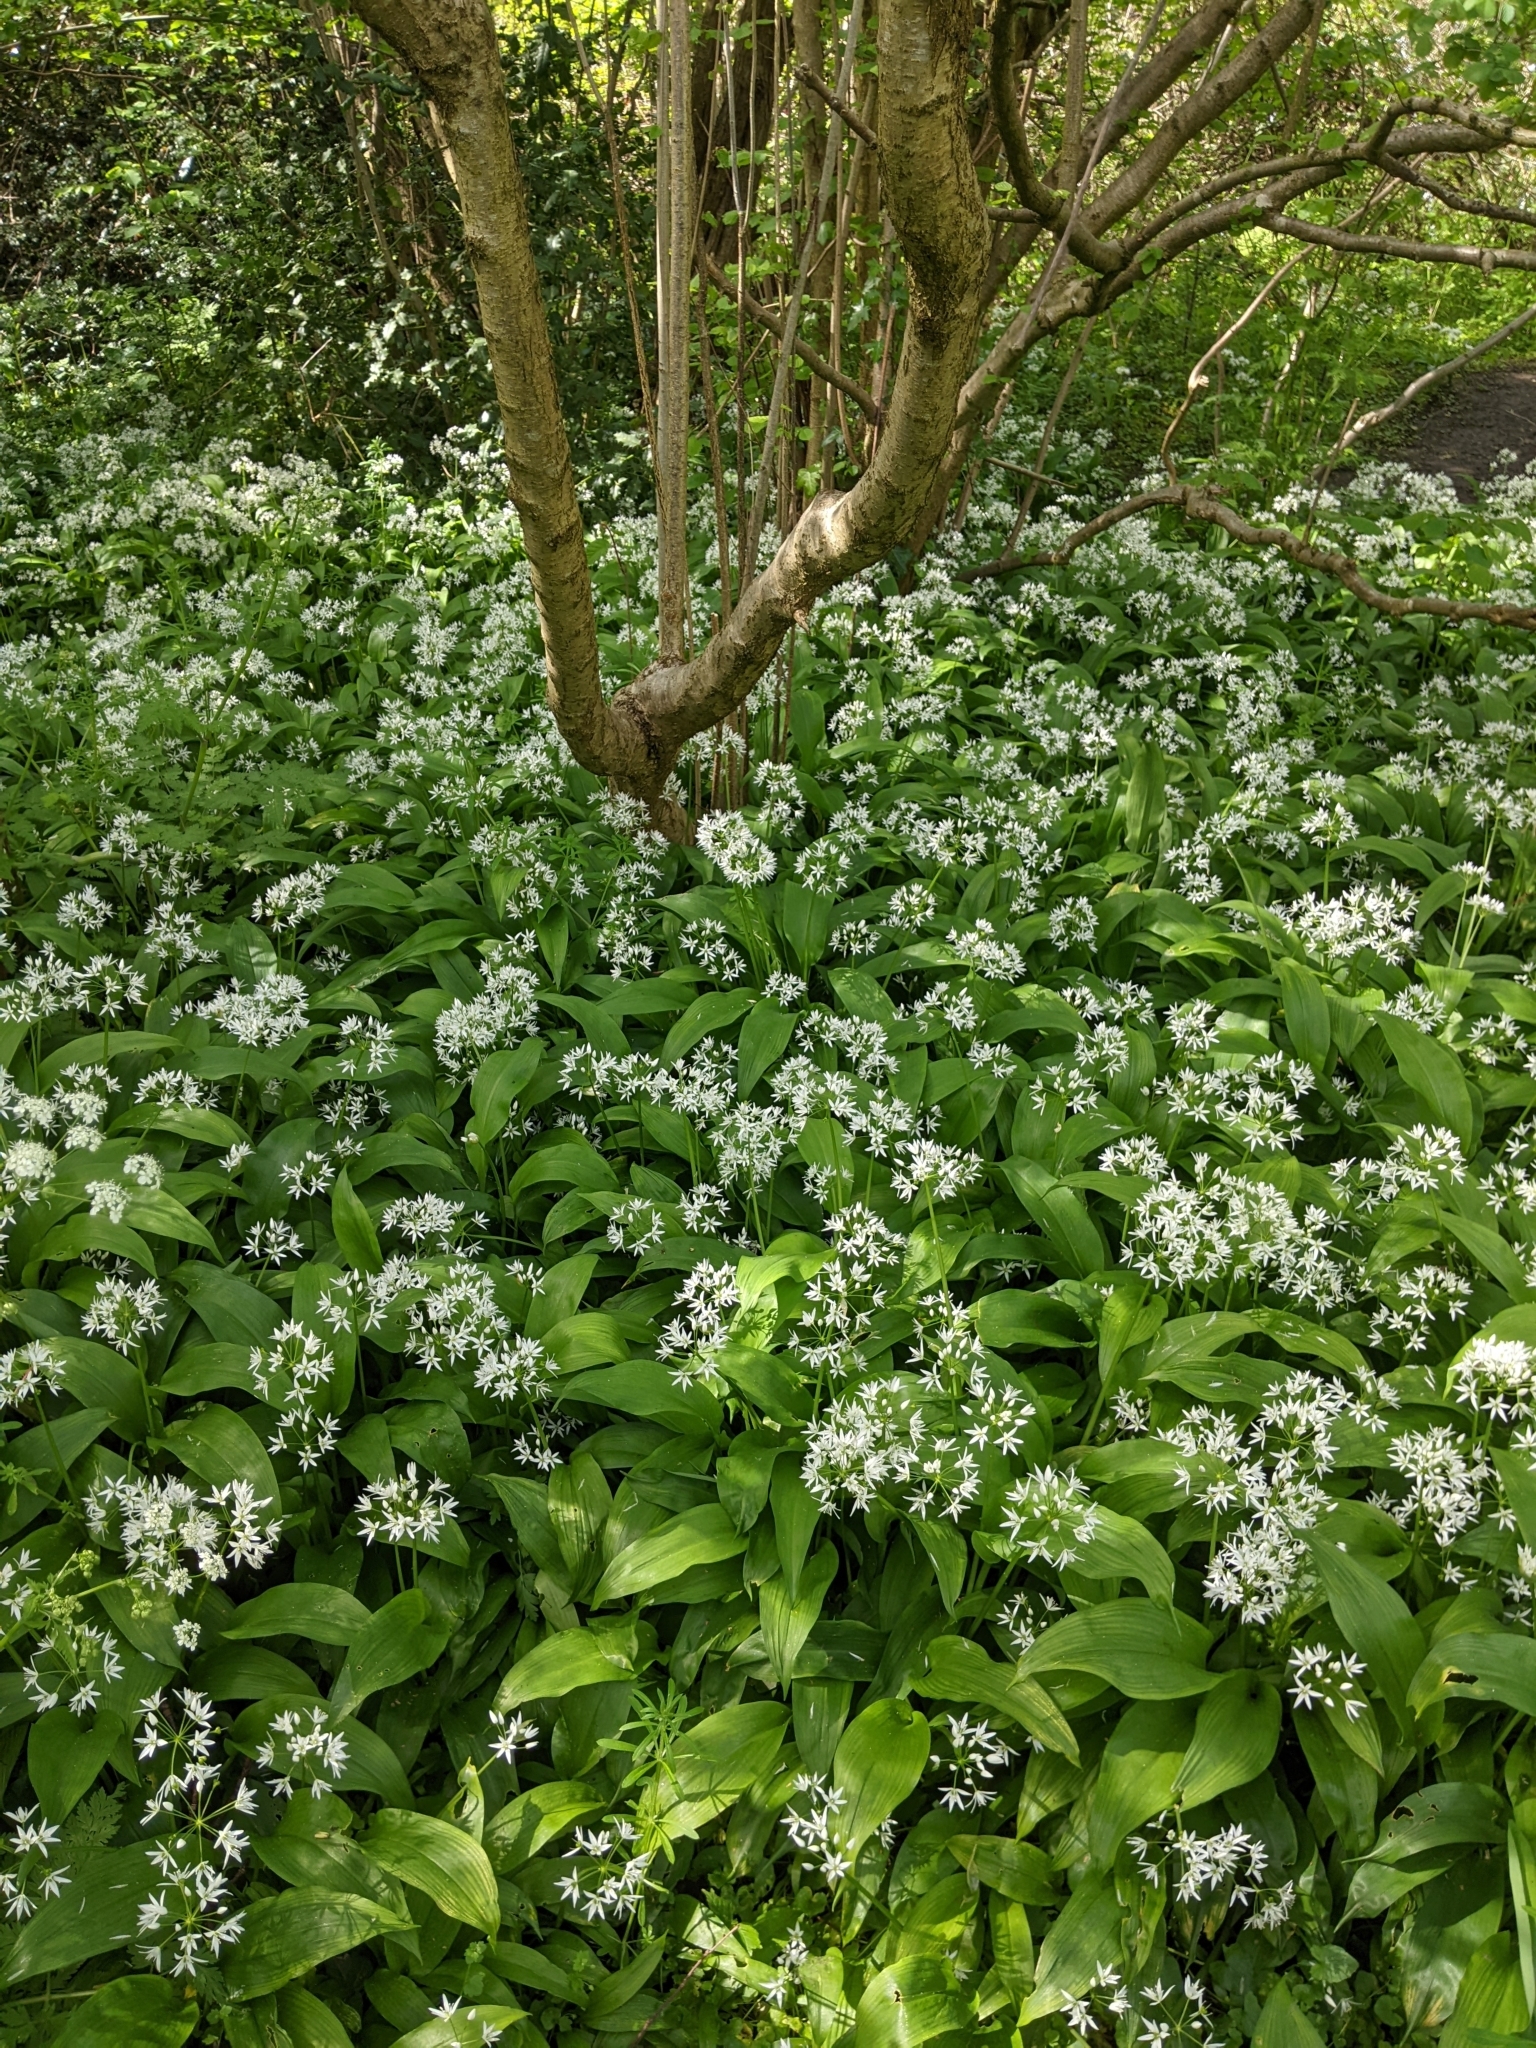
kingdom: Plantae
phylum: Tracheophyta
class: Liliopsida
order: Asparagales
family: Amaryllidaceae
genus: Allium
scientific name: Allium ursinum
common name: Ramsons
